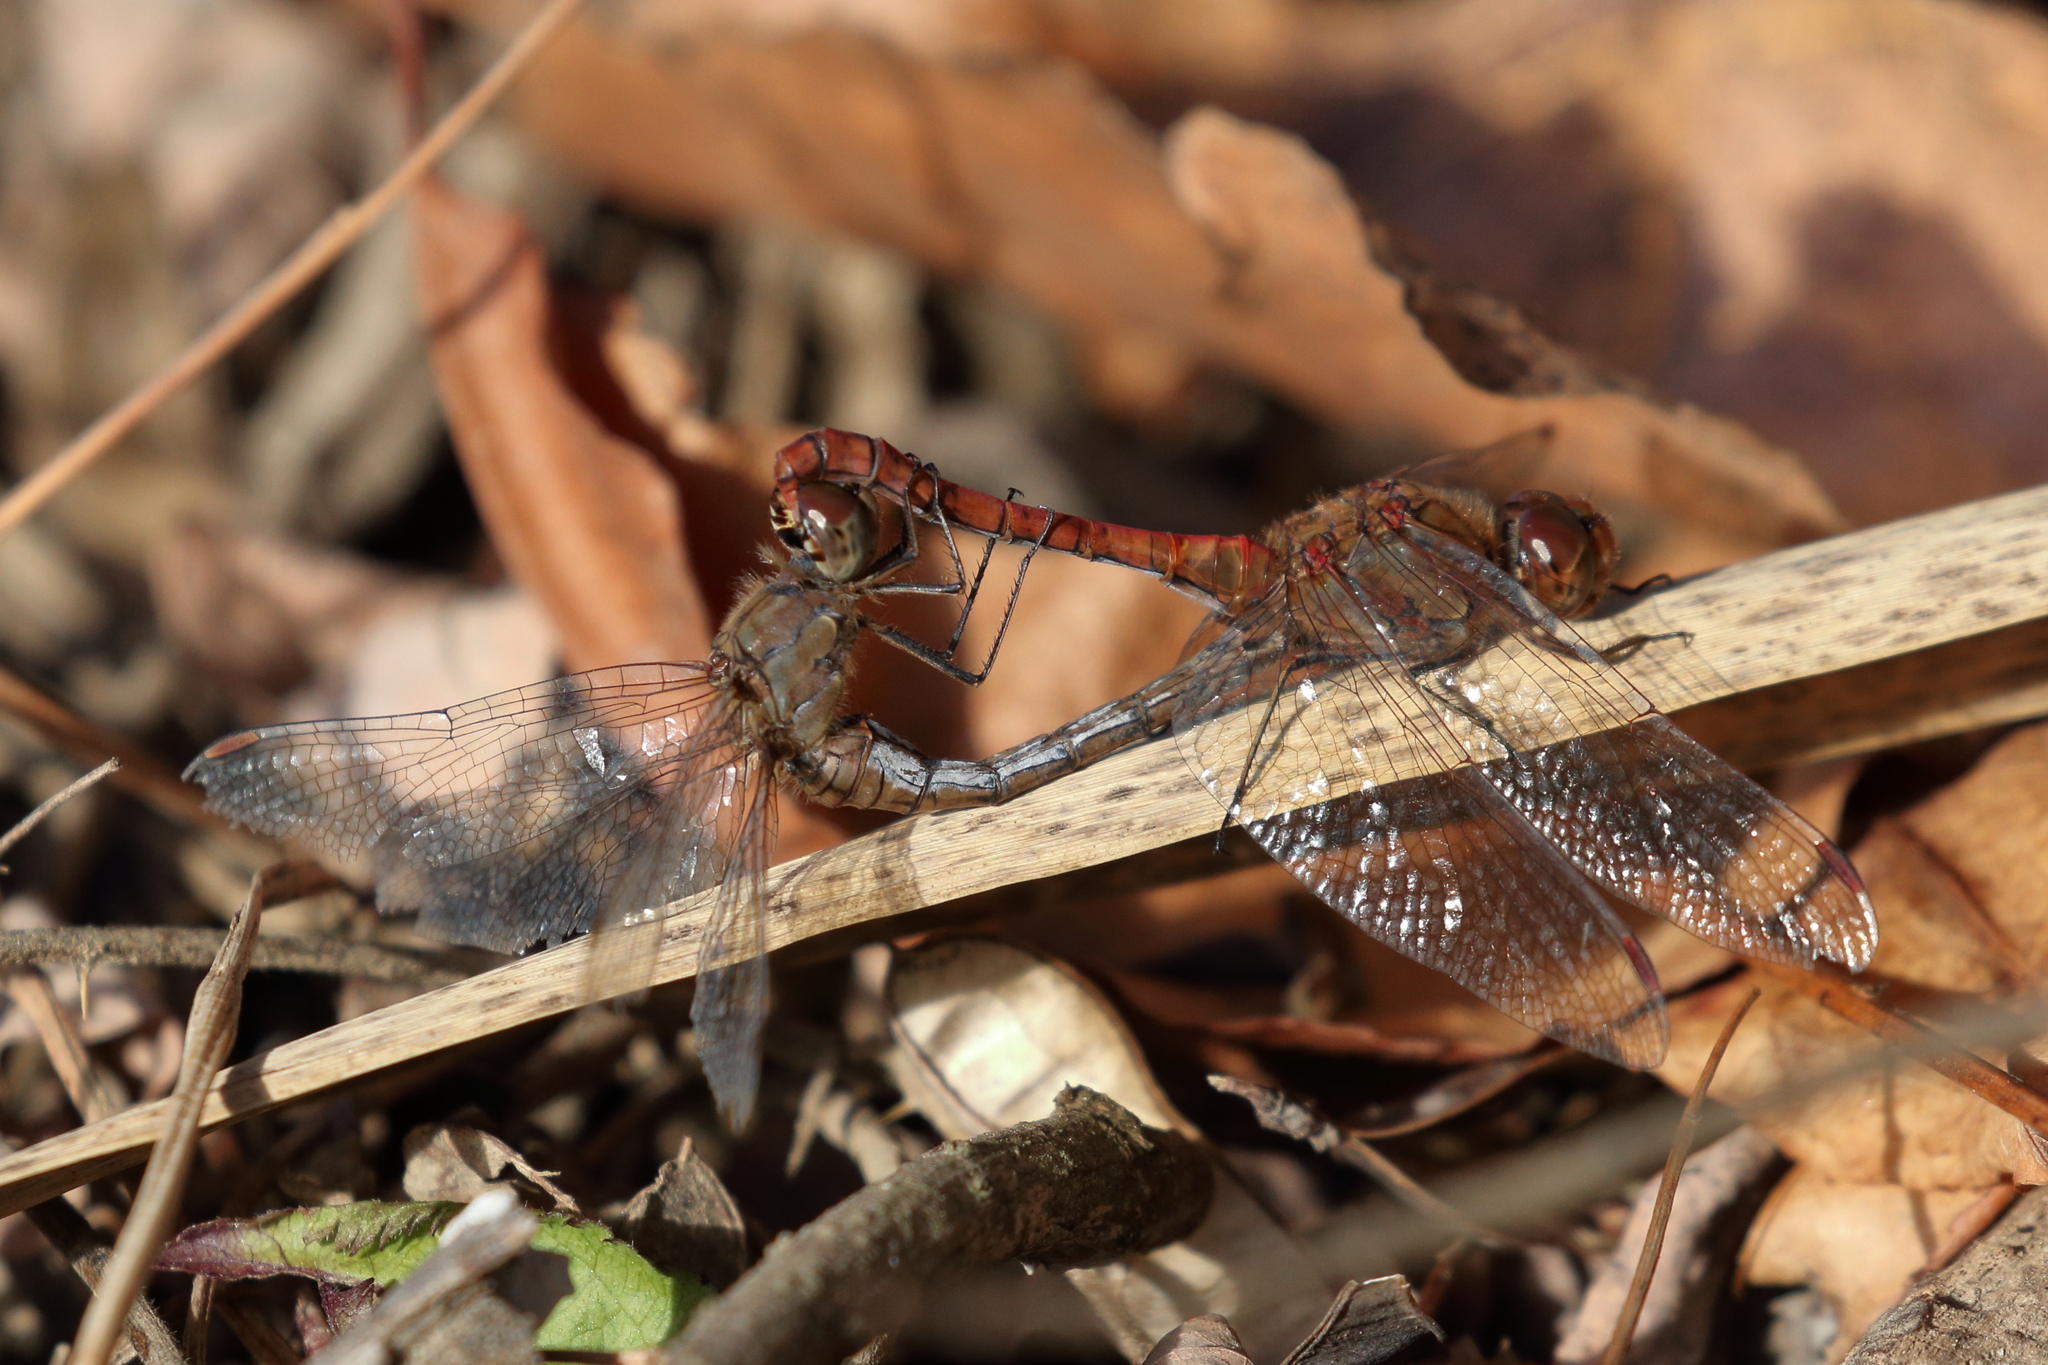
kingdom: Animalia
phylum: Arthropoda
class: Insecta
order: Odonata
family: Libellulidae
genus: Sympetrum
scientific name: Sympetrum striolatum
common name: Common darter
